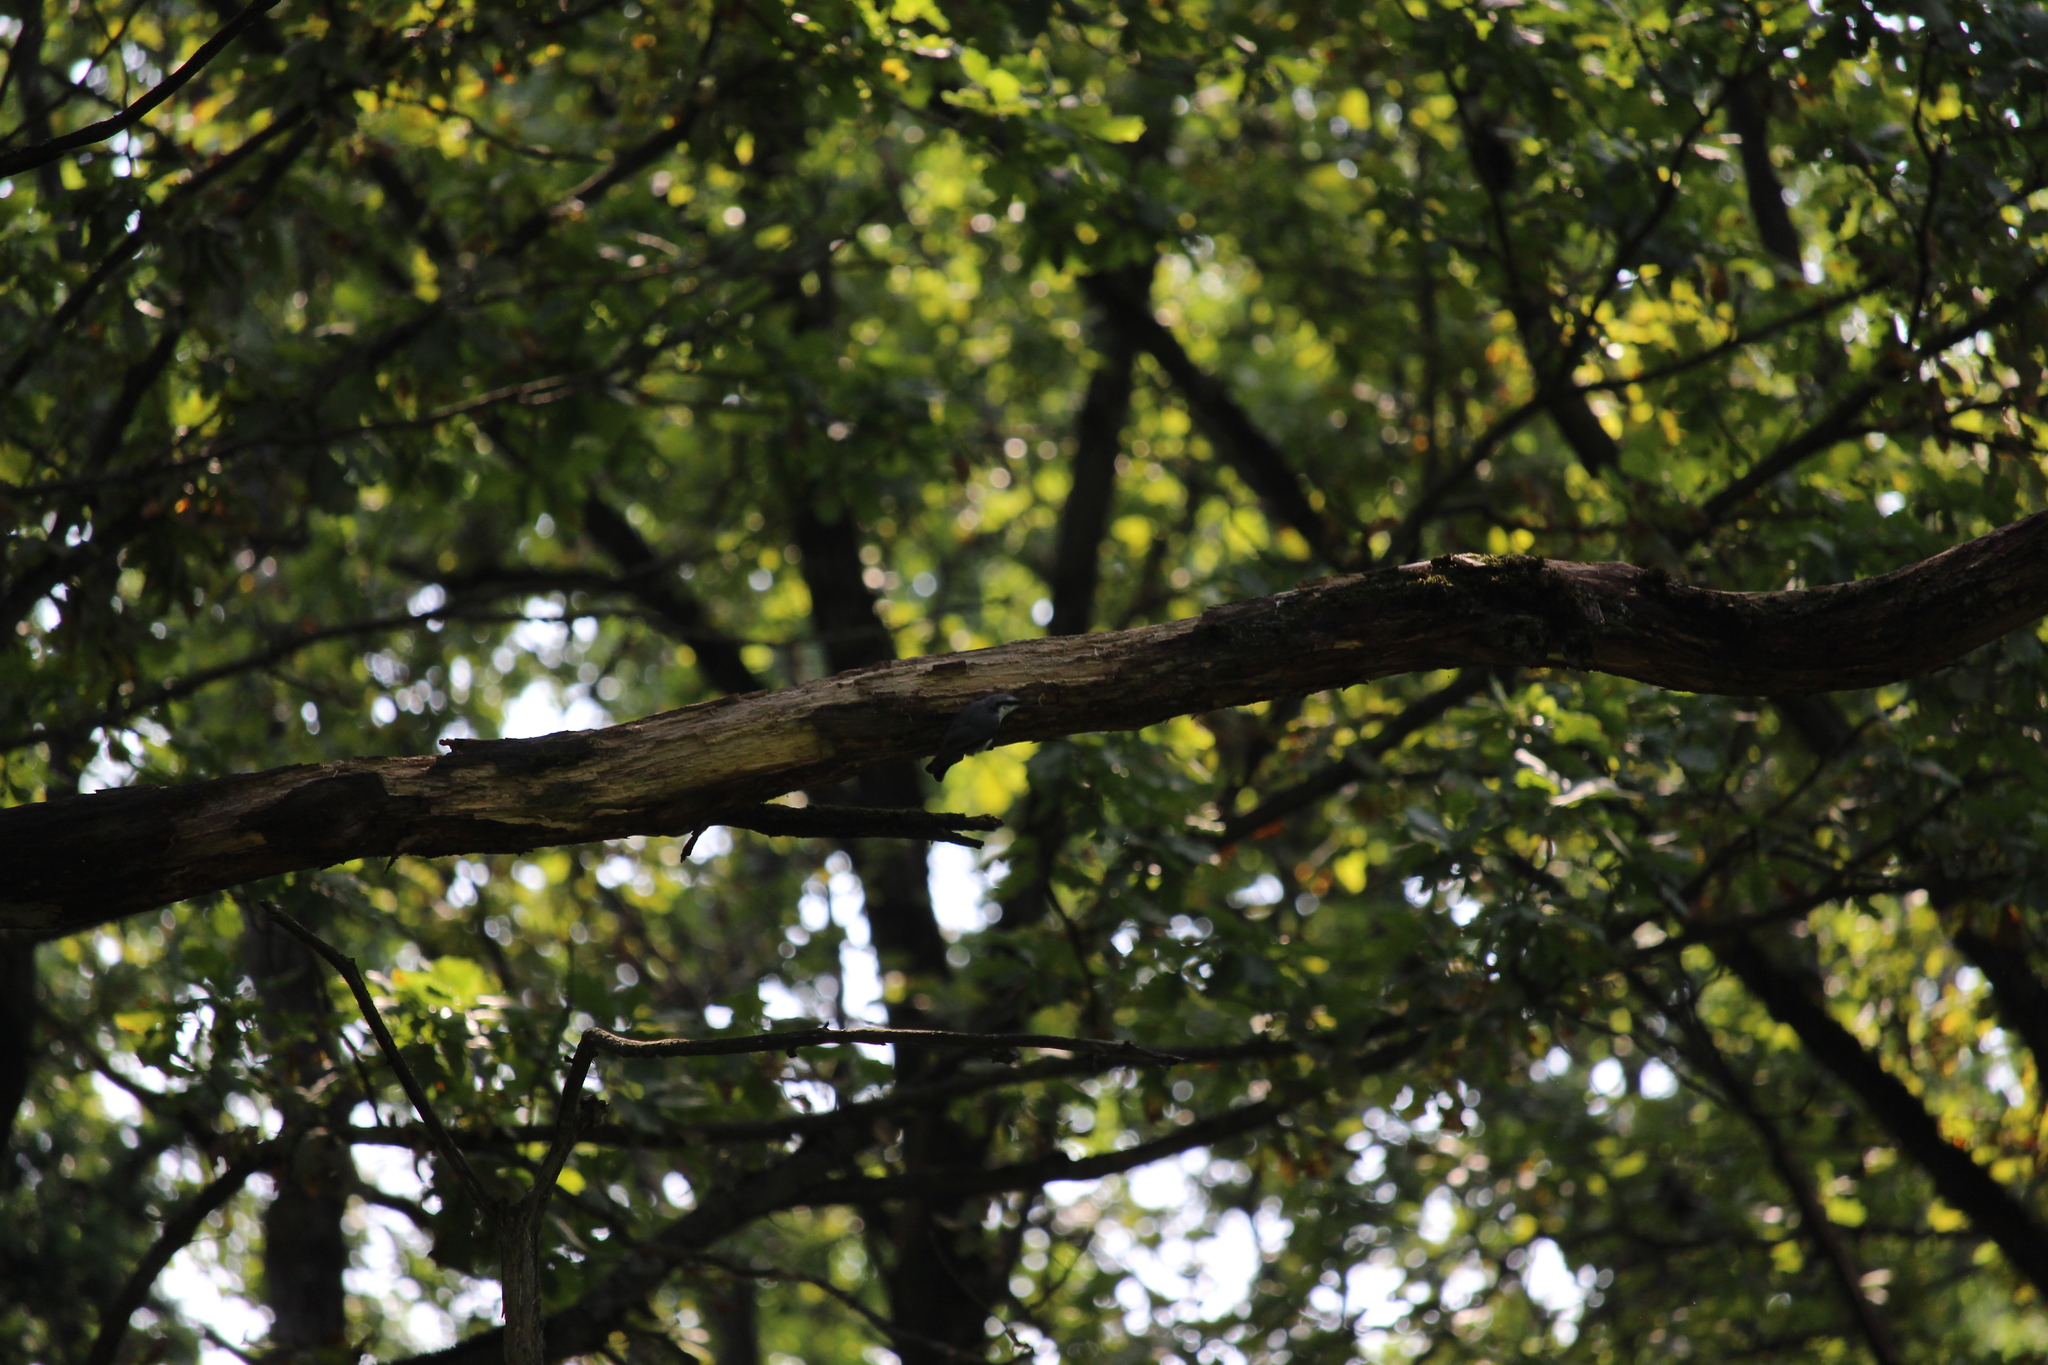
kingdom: Animalia
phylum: Chordata
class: Aves
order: Passeriformes
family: Sittidae
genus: Sitta
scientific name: Sitta europaea
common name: Eurasian nuthatch
